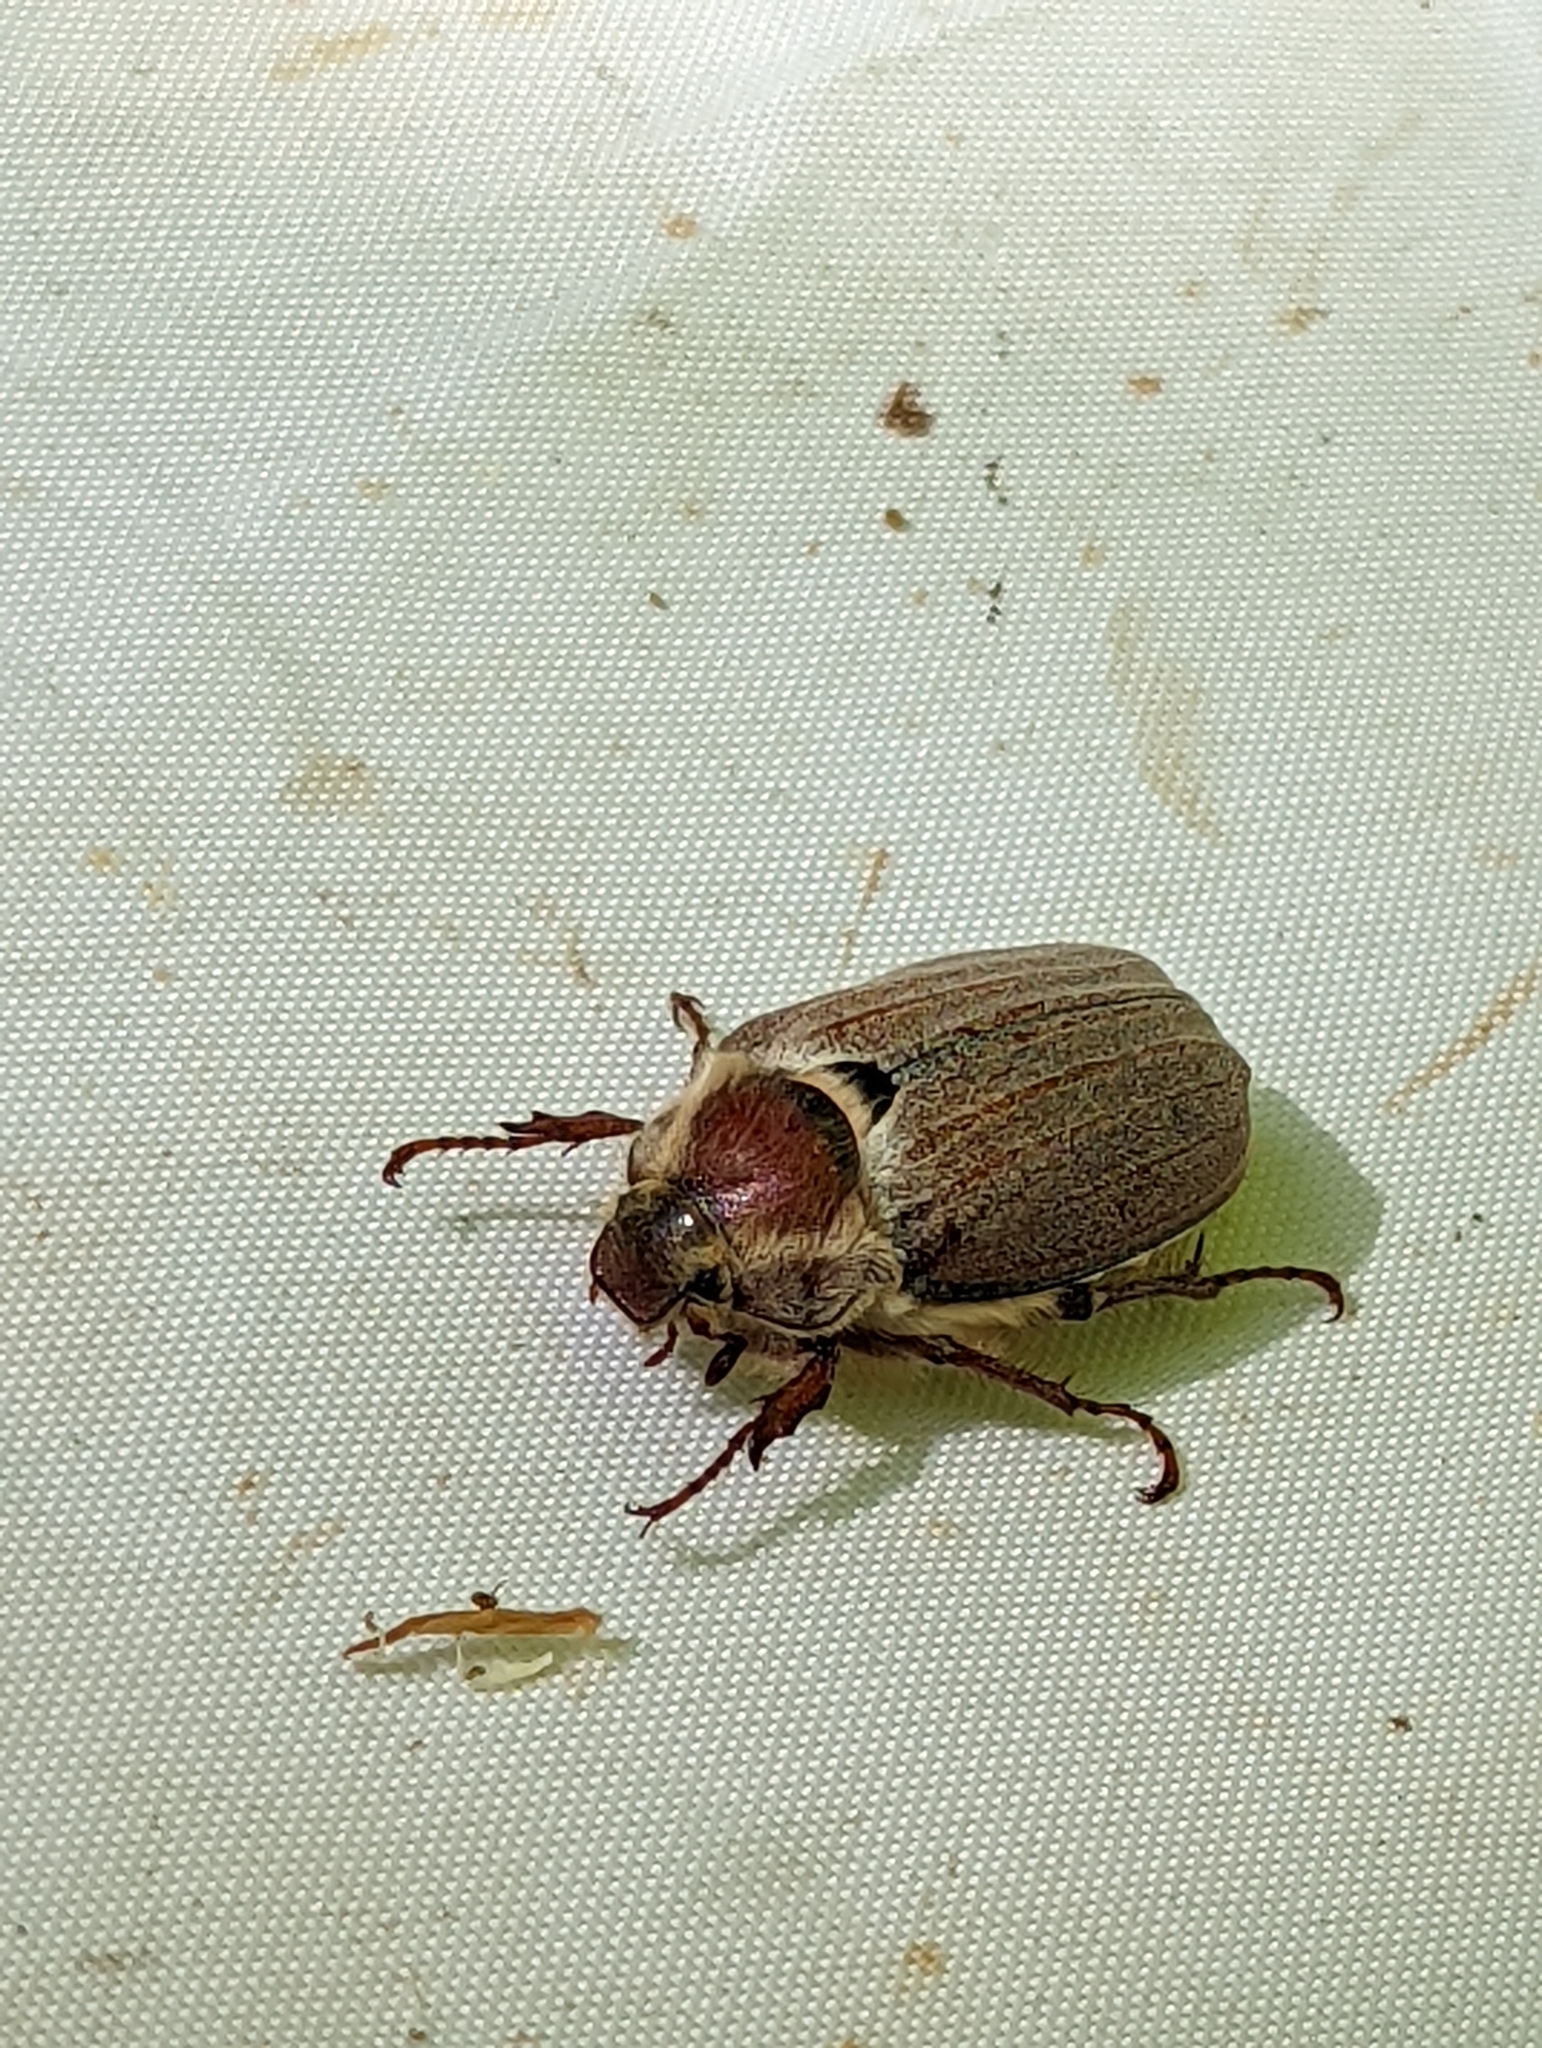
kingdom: Animalia
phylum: Arthropoda
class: Insecta
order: Coleoptera
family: Scarabaeidae
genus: Melolontha
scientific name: Melolontha melolontha
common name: Cockchafer maybeetle
